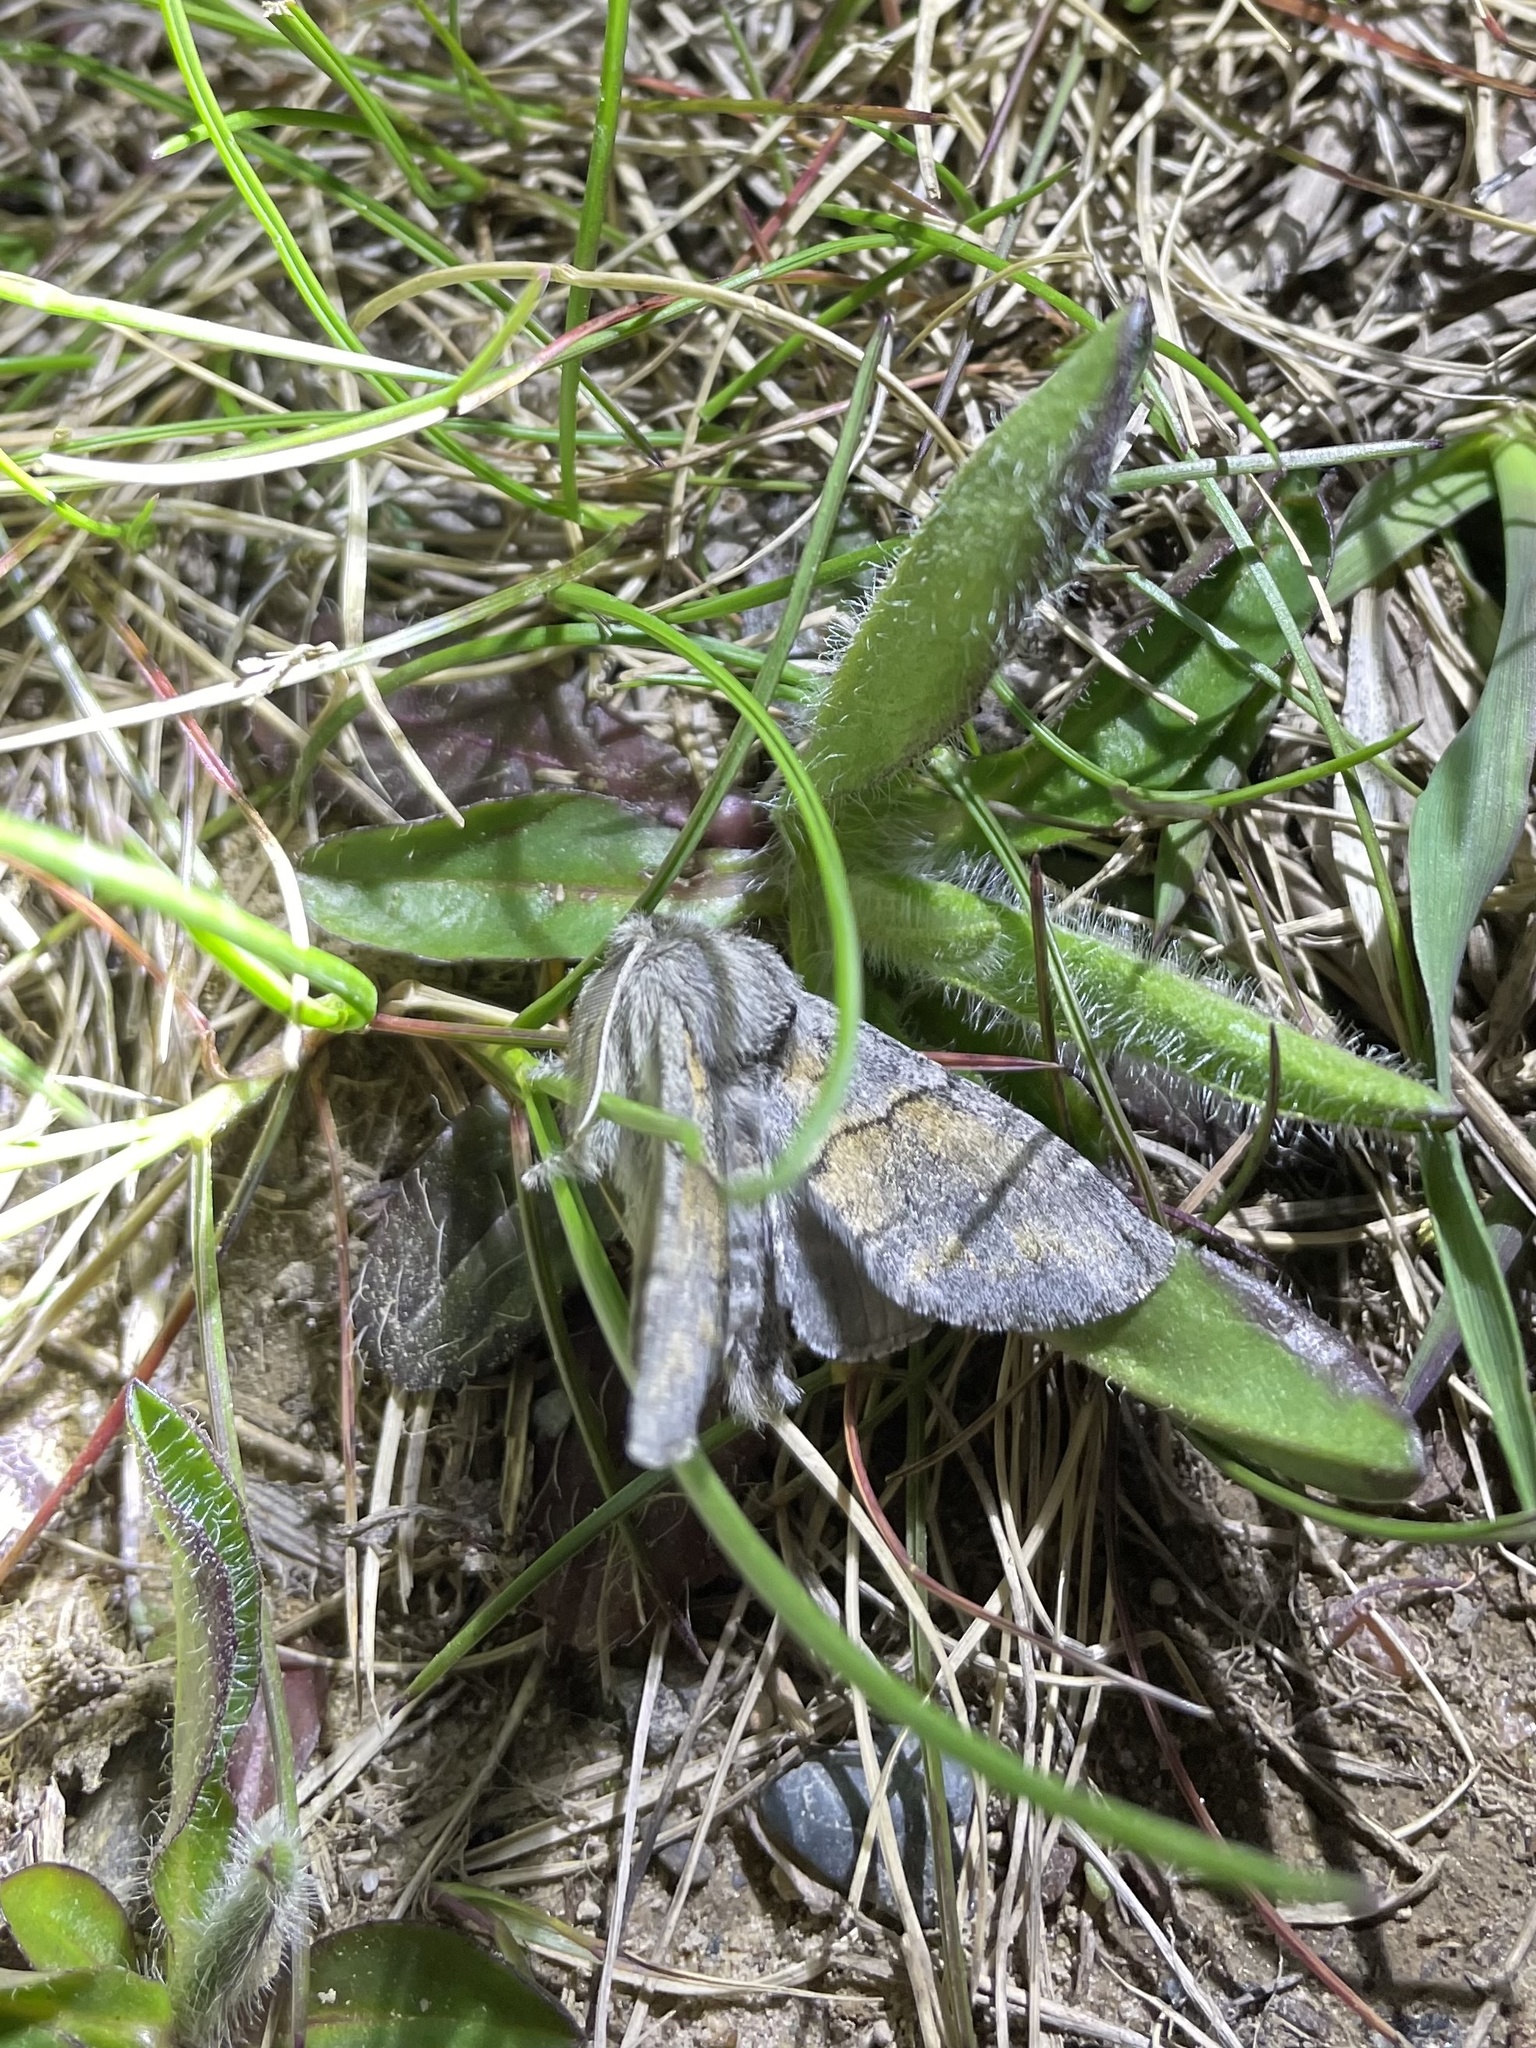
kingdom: Animalia
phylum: Arthropoda
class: Insecta
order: Lepidoptera
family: Notodontidae
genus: Gluphisia
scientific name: Gluphisia lintneri
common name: Lintner's gluphisia moth
